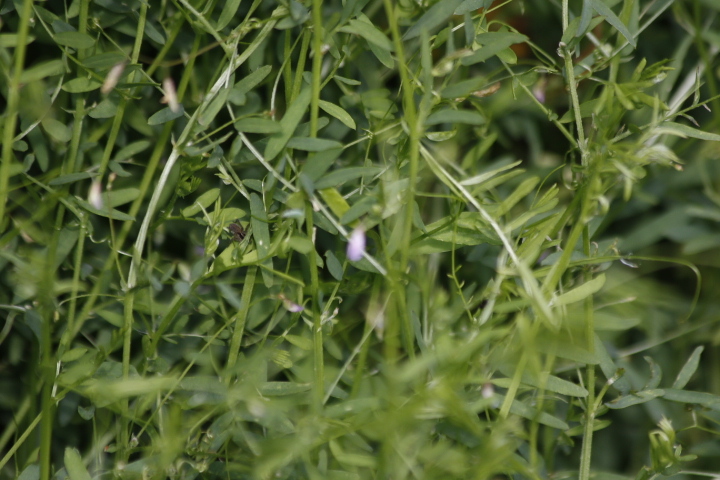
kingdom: Plantae
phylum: Tracheophyta
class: Magnoliopsida
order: Fabales
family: Fabaceae
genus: Vicia
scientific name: Vicia tetrasperma
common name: Smooth tare
